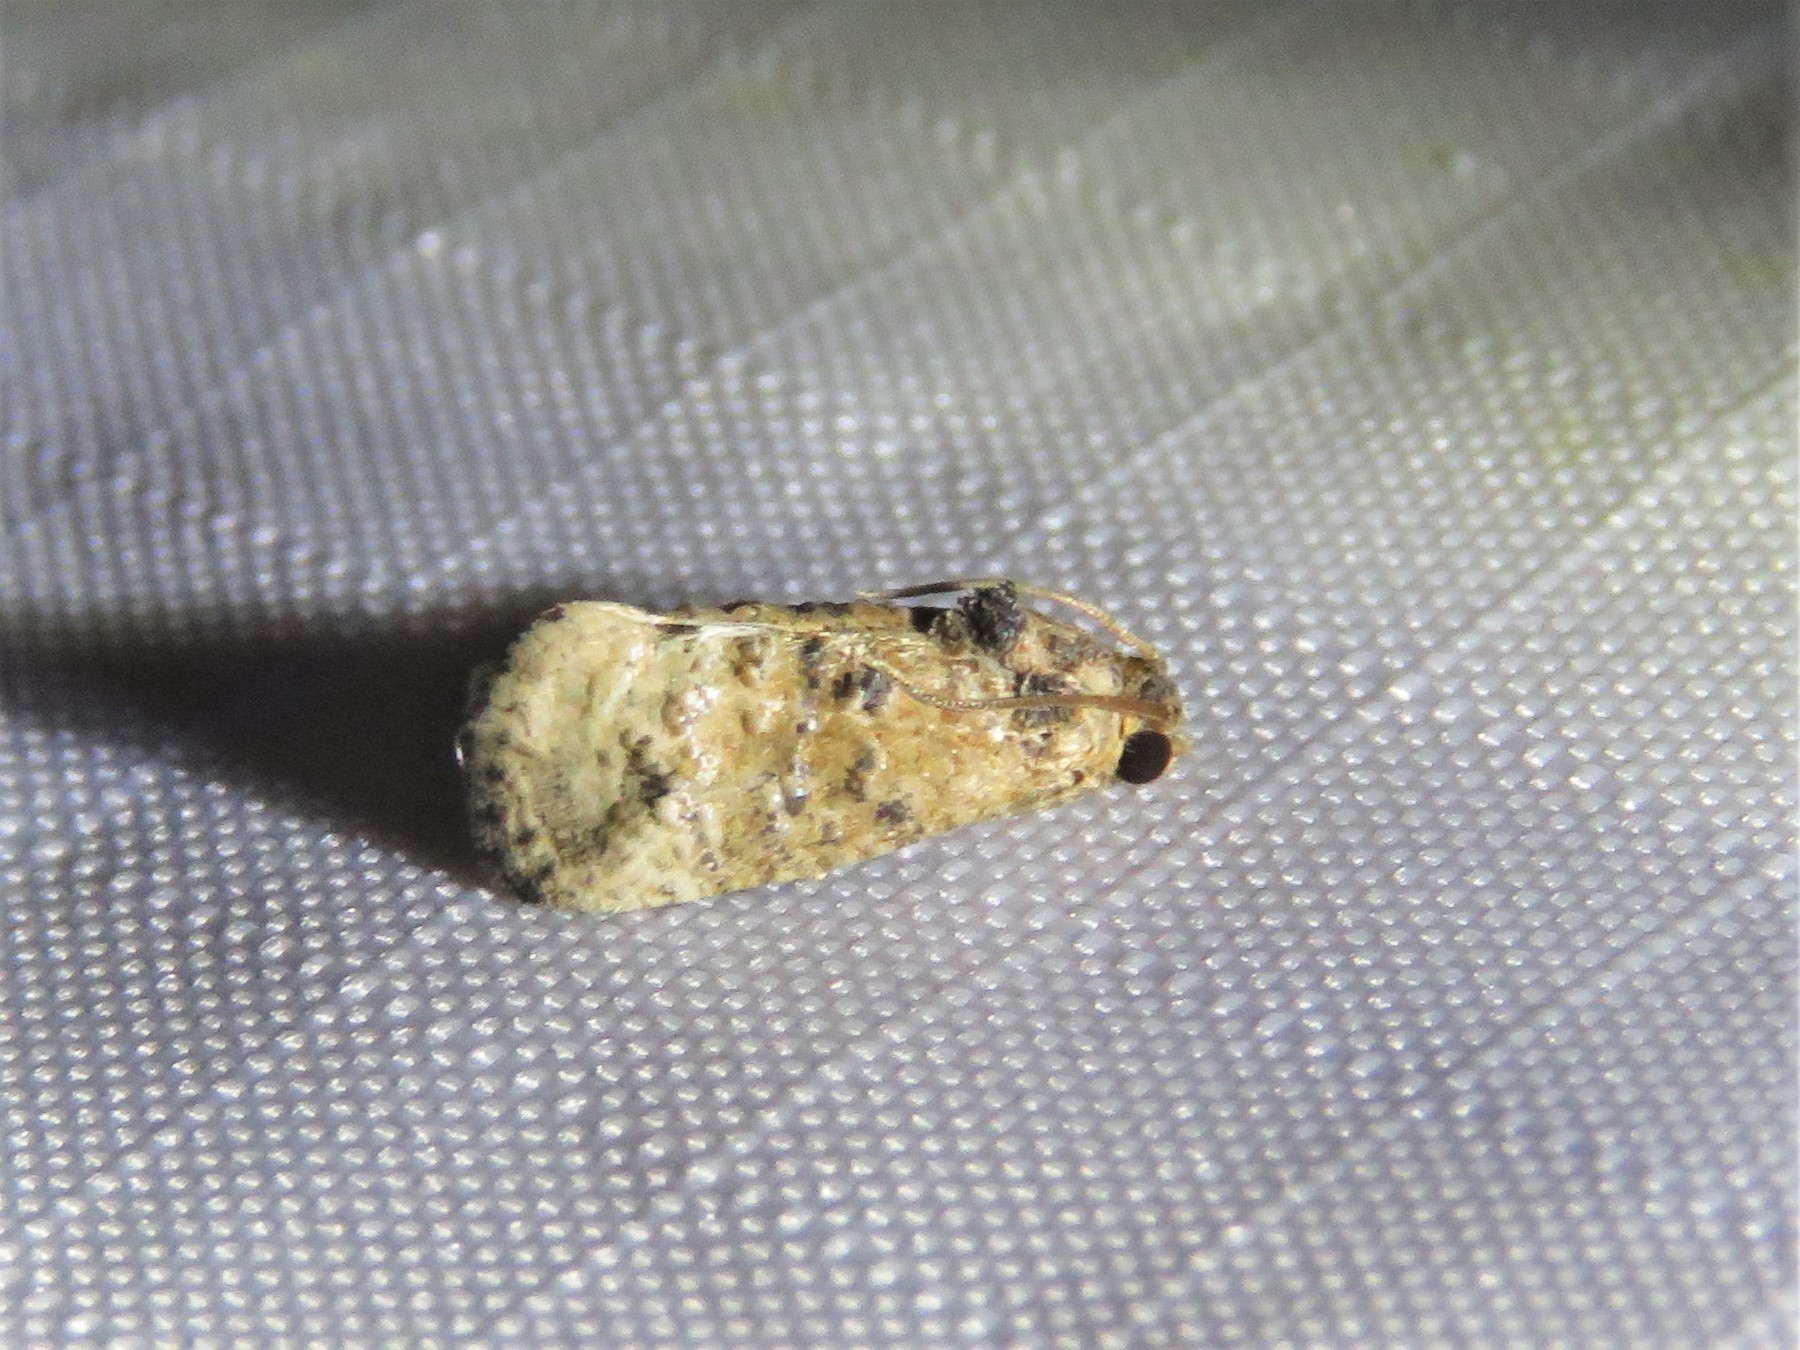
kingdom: Animalia
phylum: Arthropoda
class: Insecta
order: Lepidoptera
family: Tortricidae
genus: Ecdytolopha
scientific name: Ecdytolopha mana
